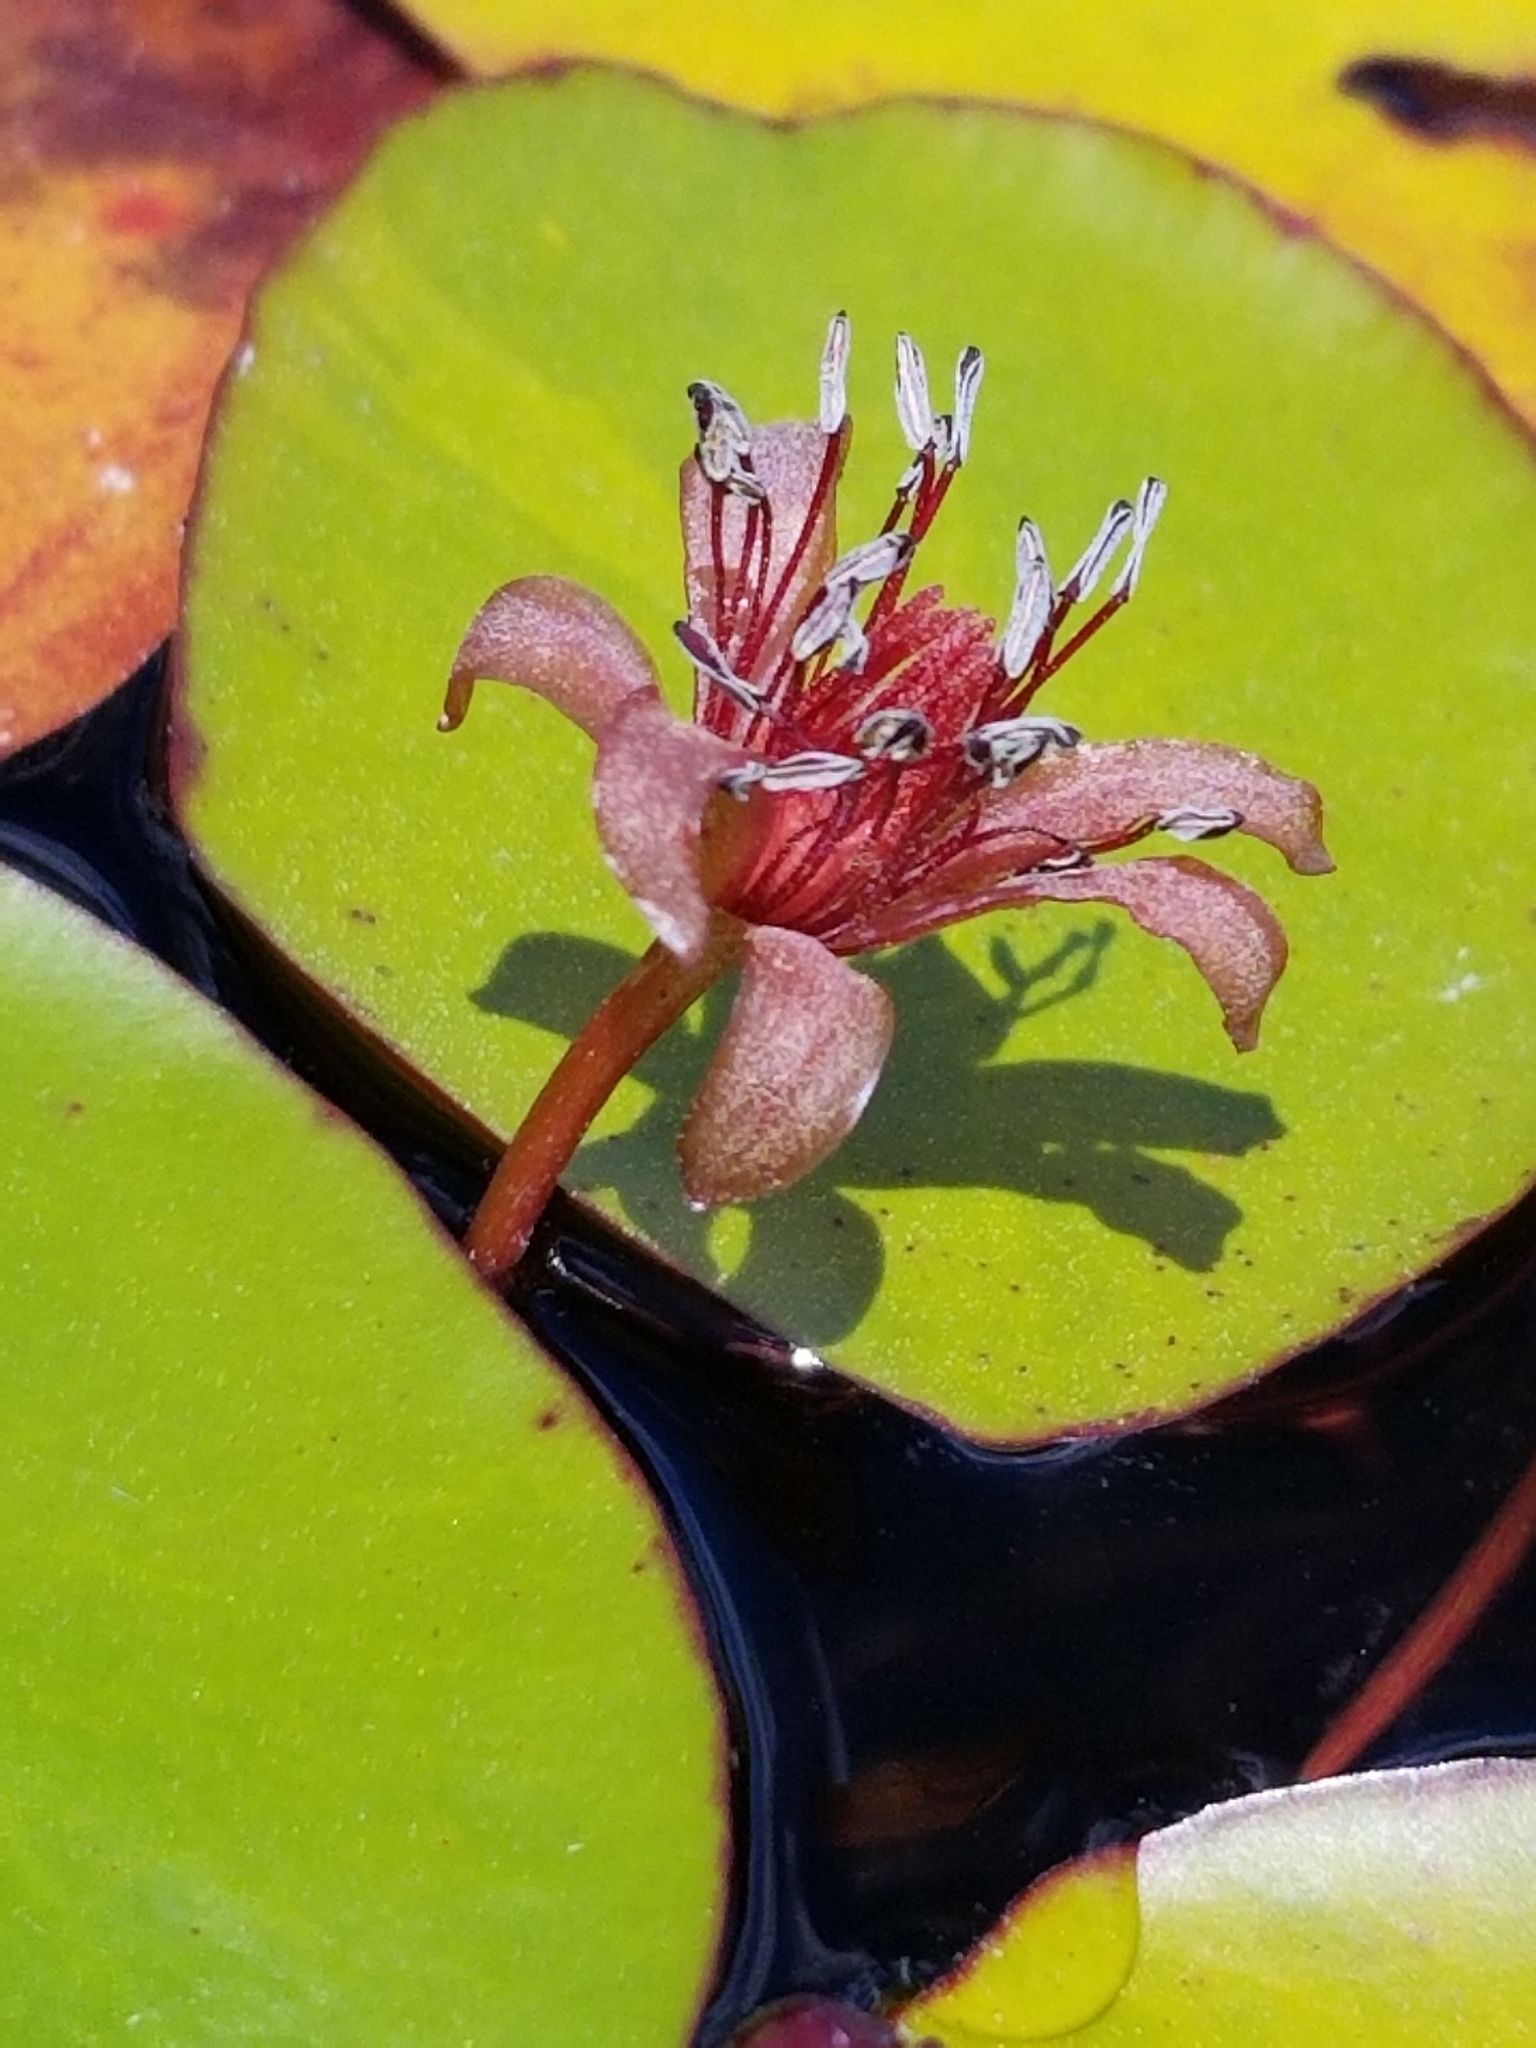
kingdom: Plantae
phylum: Tracheophyta
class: Magnoliopsida
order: Nymphaeales
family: Cabombaceae
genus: Brasenia
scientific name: Brasenia schreberi
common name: Water-shield
